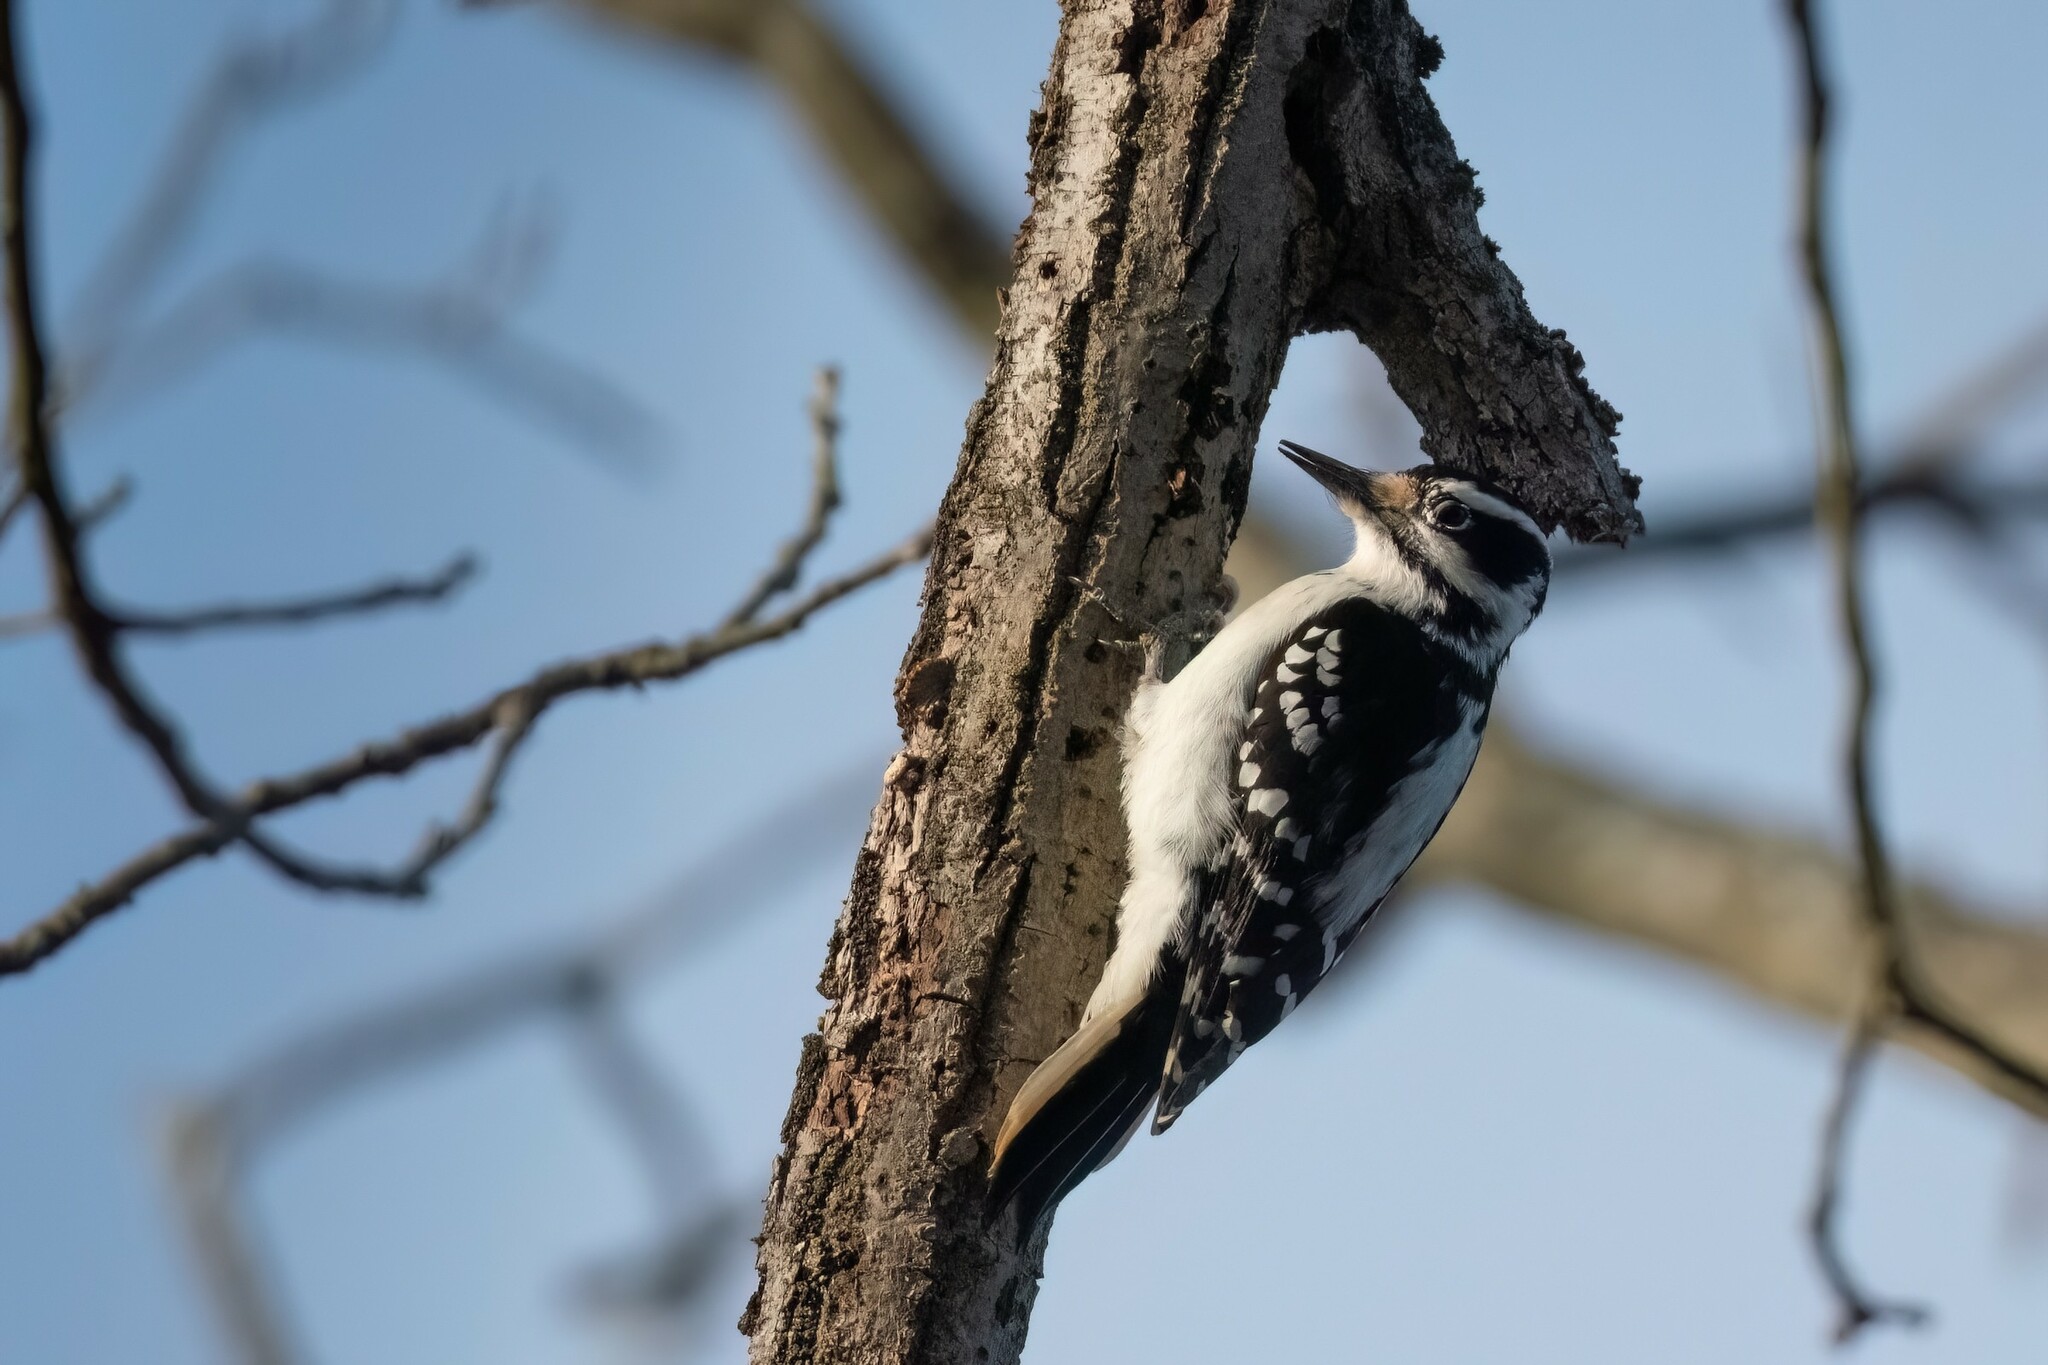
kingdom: Animalia
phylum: Chordata
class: Aves
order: Piciformes
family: Picidae
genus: Leuconotopicus
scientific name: Leuconotopicus villosus
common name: Hairy woodpecker
